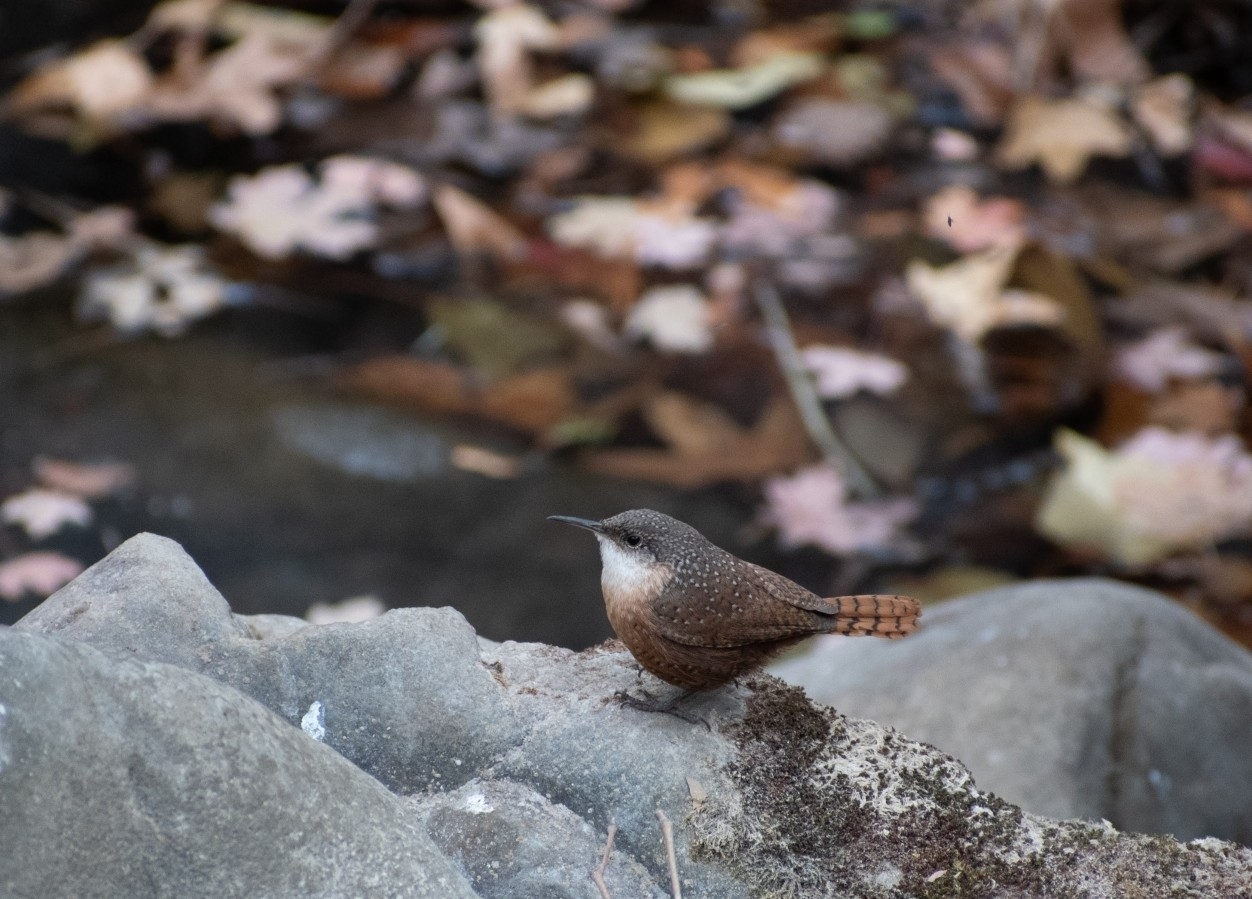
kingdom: Animalia
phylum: Chordata
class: Aves
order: Passeriformes
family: Troglodytidae
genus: Catherpes
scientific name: Catherpes mexicanus
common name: Canyon wren
